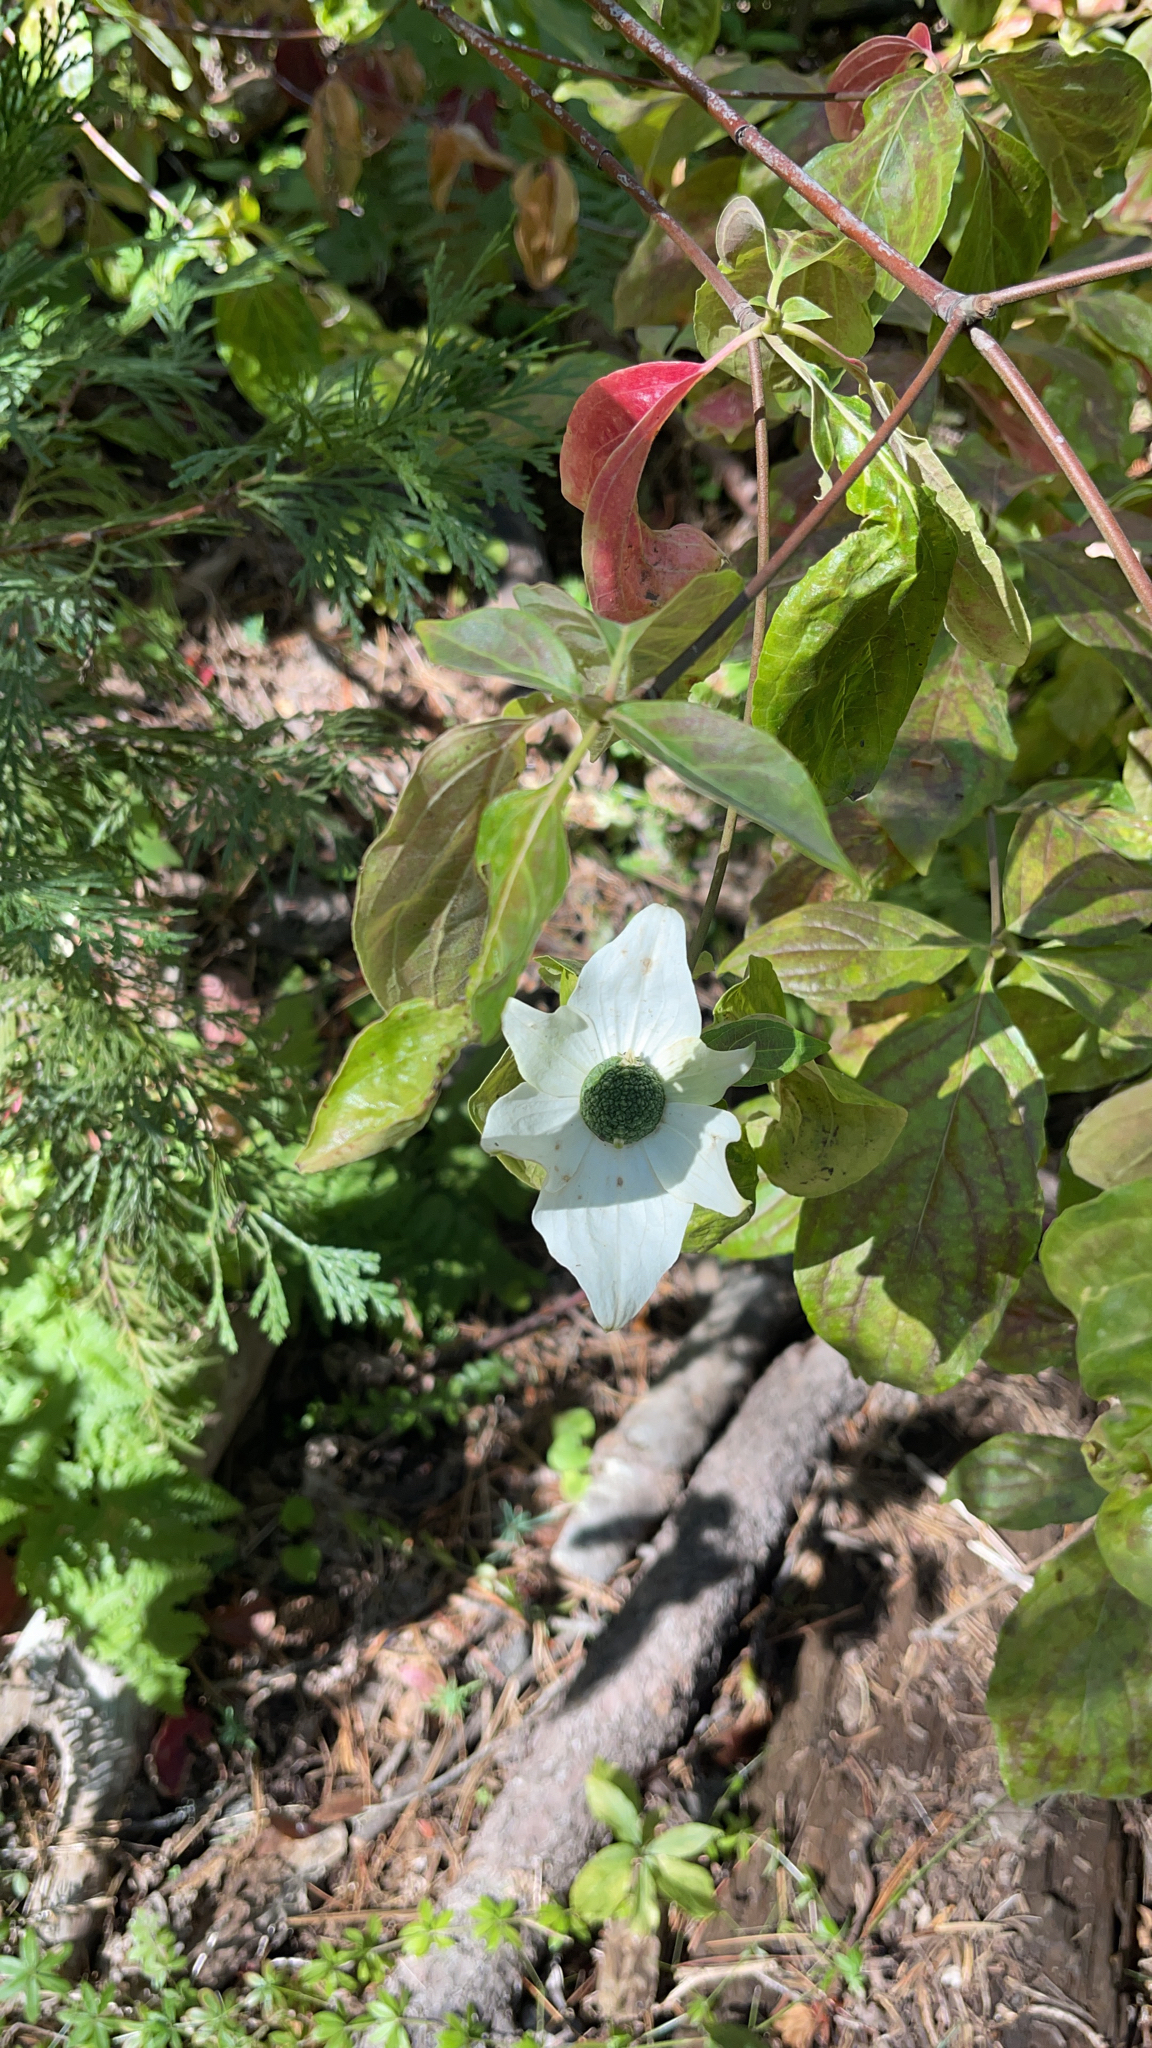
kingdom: Plantae
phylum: Tracheophyta
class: Magnoliopsida
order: Cornales
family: Cornaceae
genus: Cornus
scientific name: Cornus nuttallii
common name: Pacific dogwood
